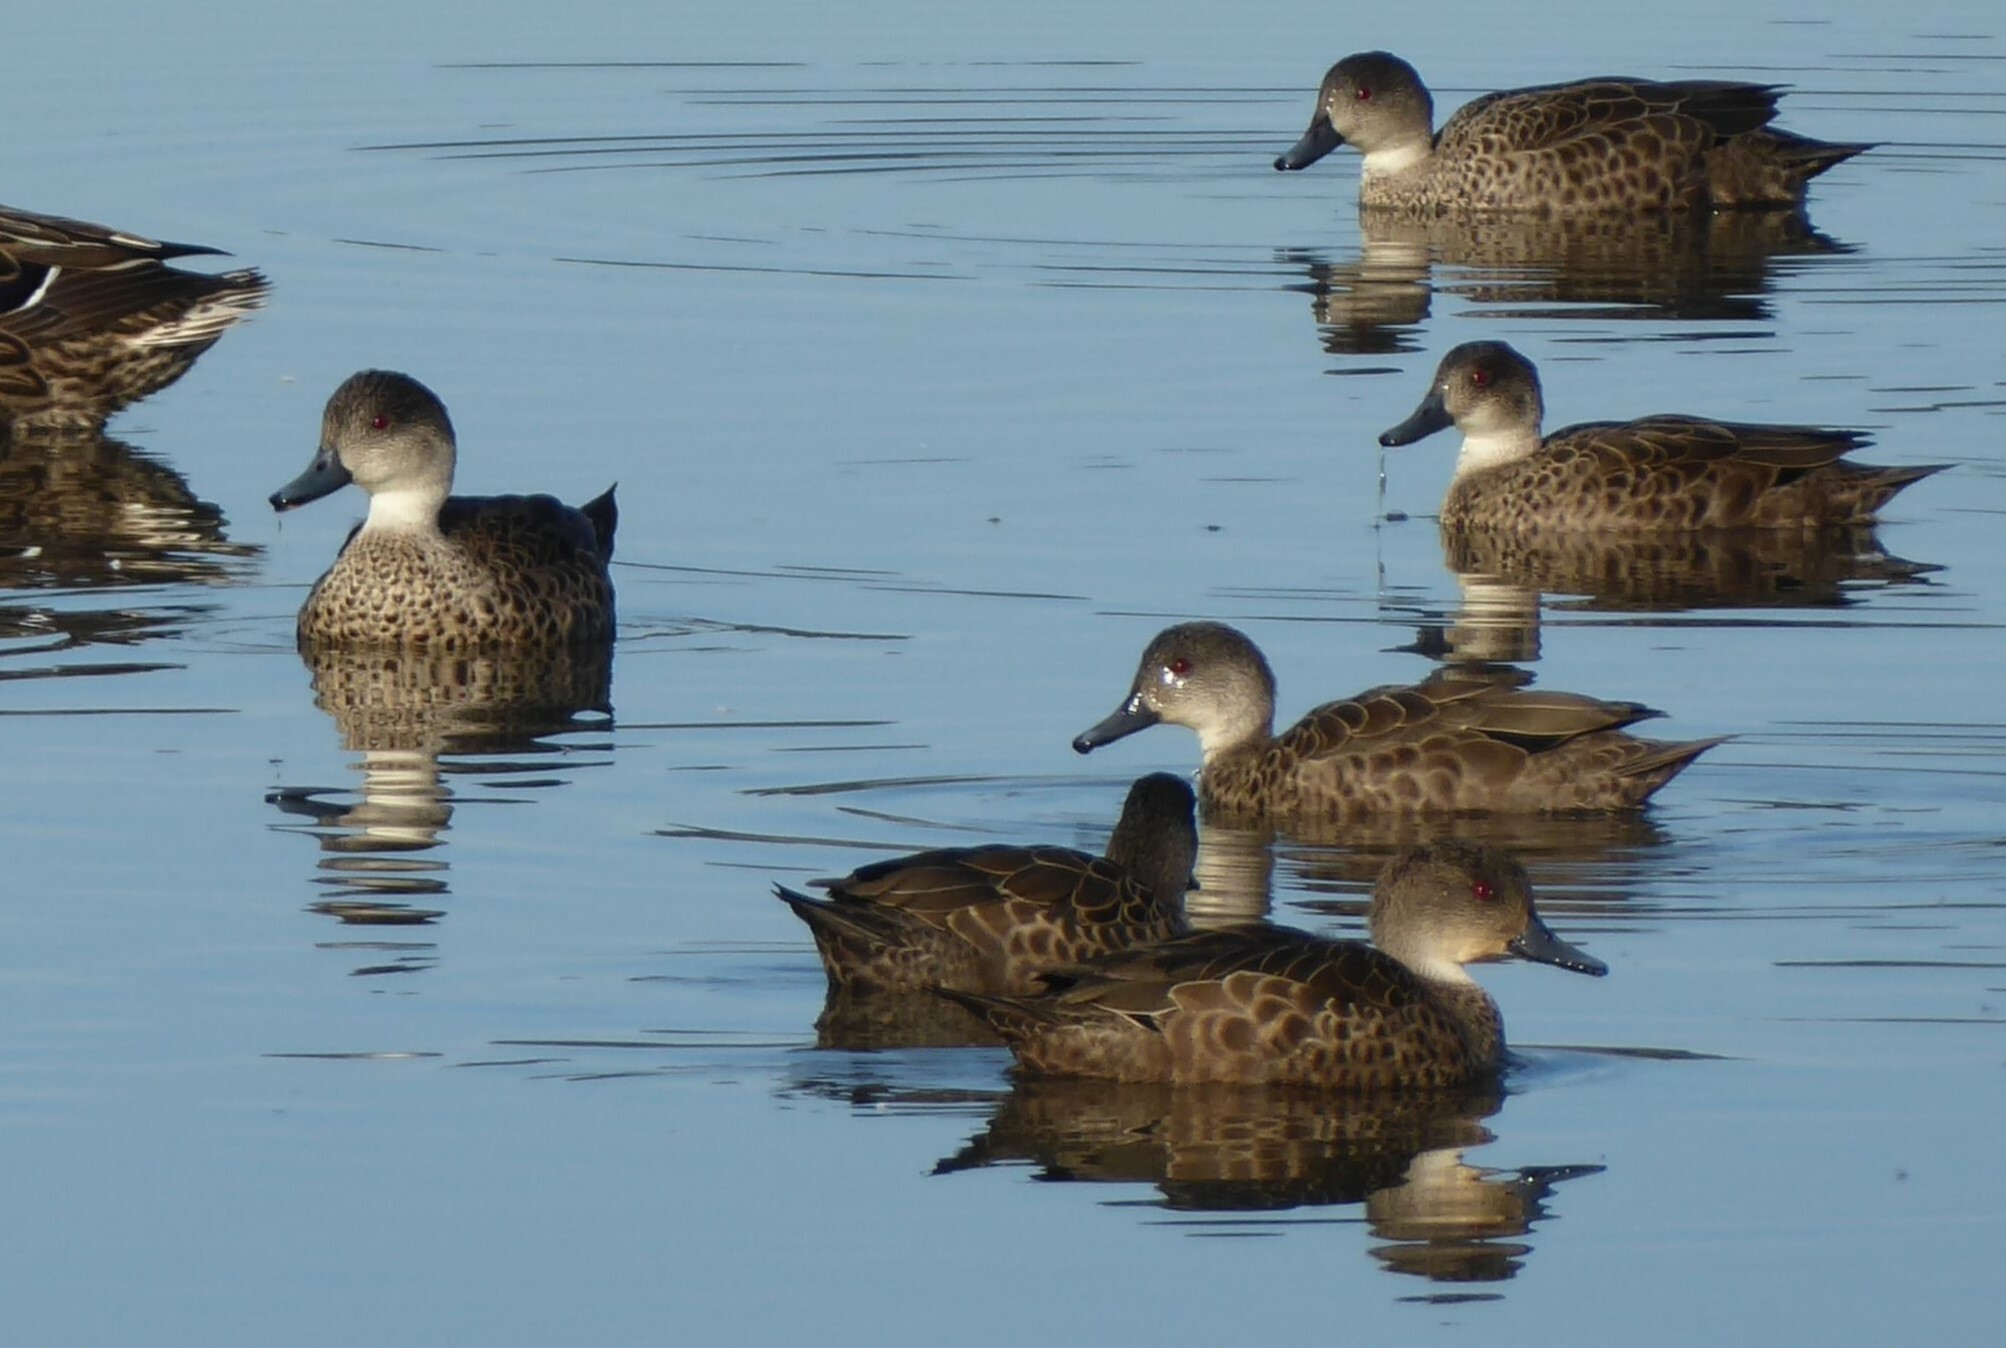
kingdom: Animalia
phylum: Chordata
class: Aves
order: Anseriformes
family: Anatidae
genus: Anas
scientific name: Anas gracilis
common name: Grey teal
